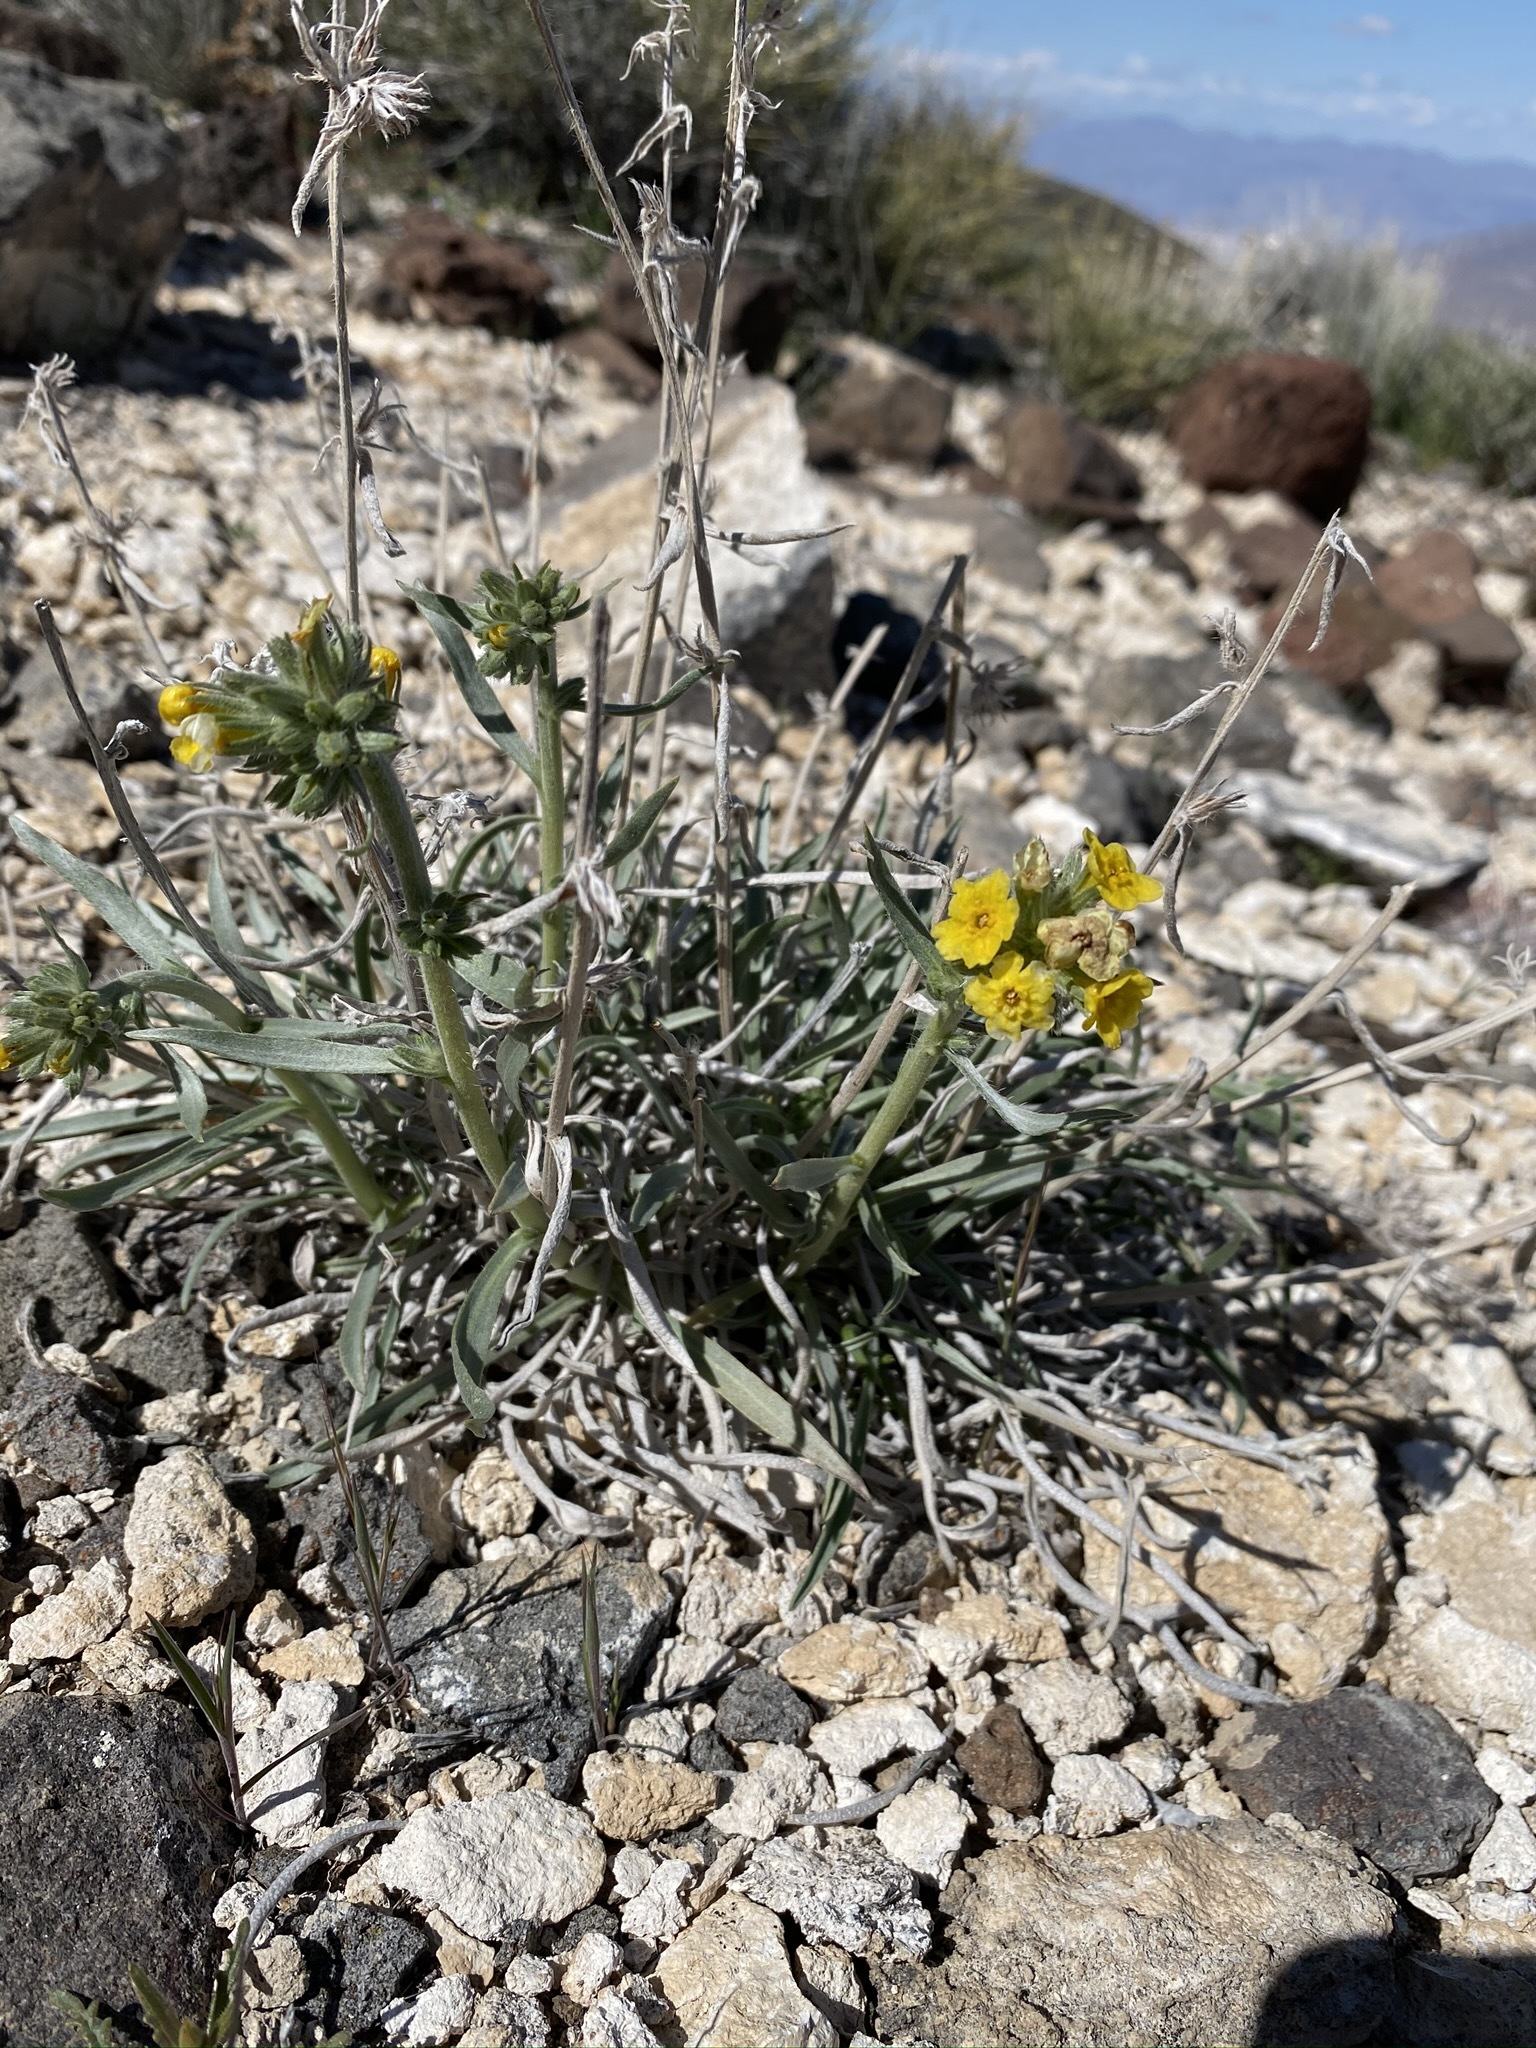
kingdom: Plantae
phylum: Tracheophyta
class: Magnoliopsida
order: Boraginales
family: Boraginaceae
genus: Oreocarya
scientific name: Oreocarya confertiflora
